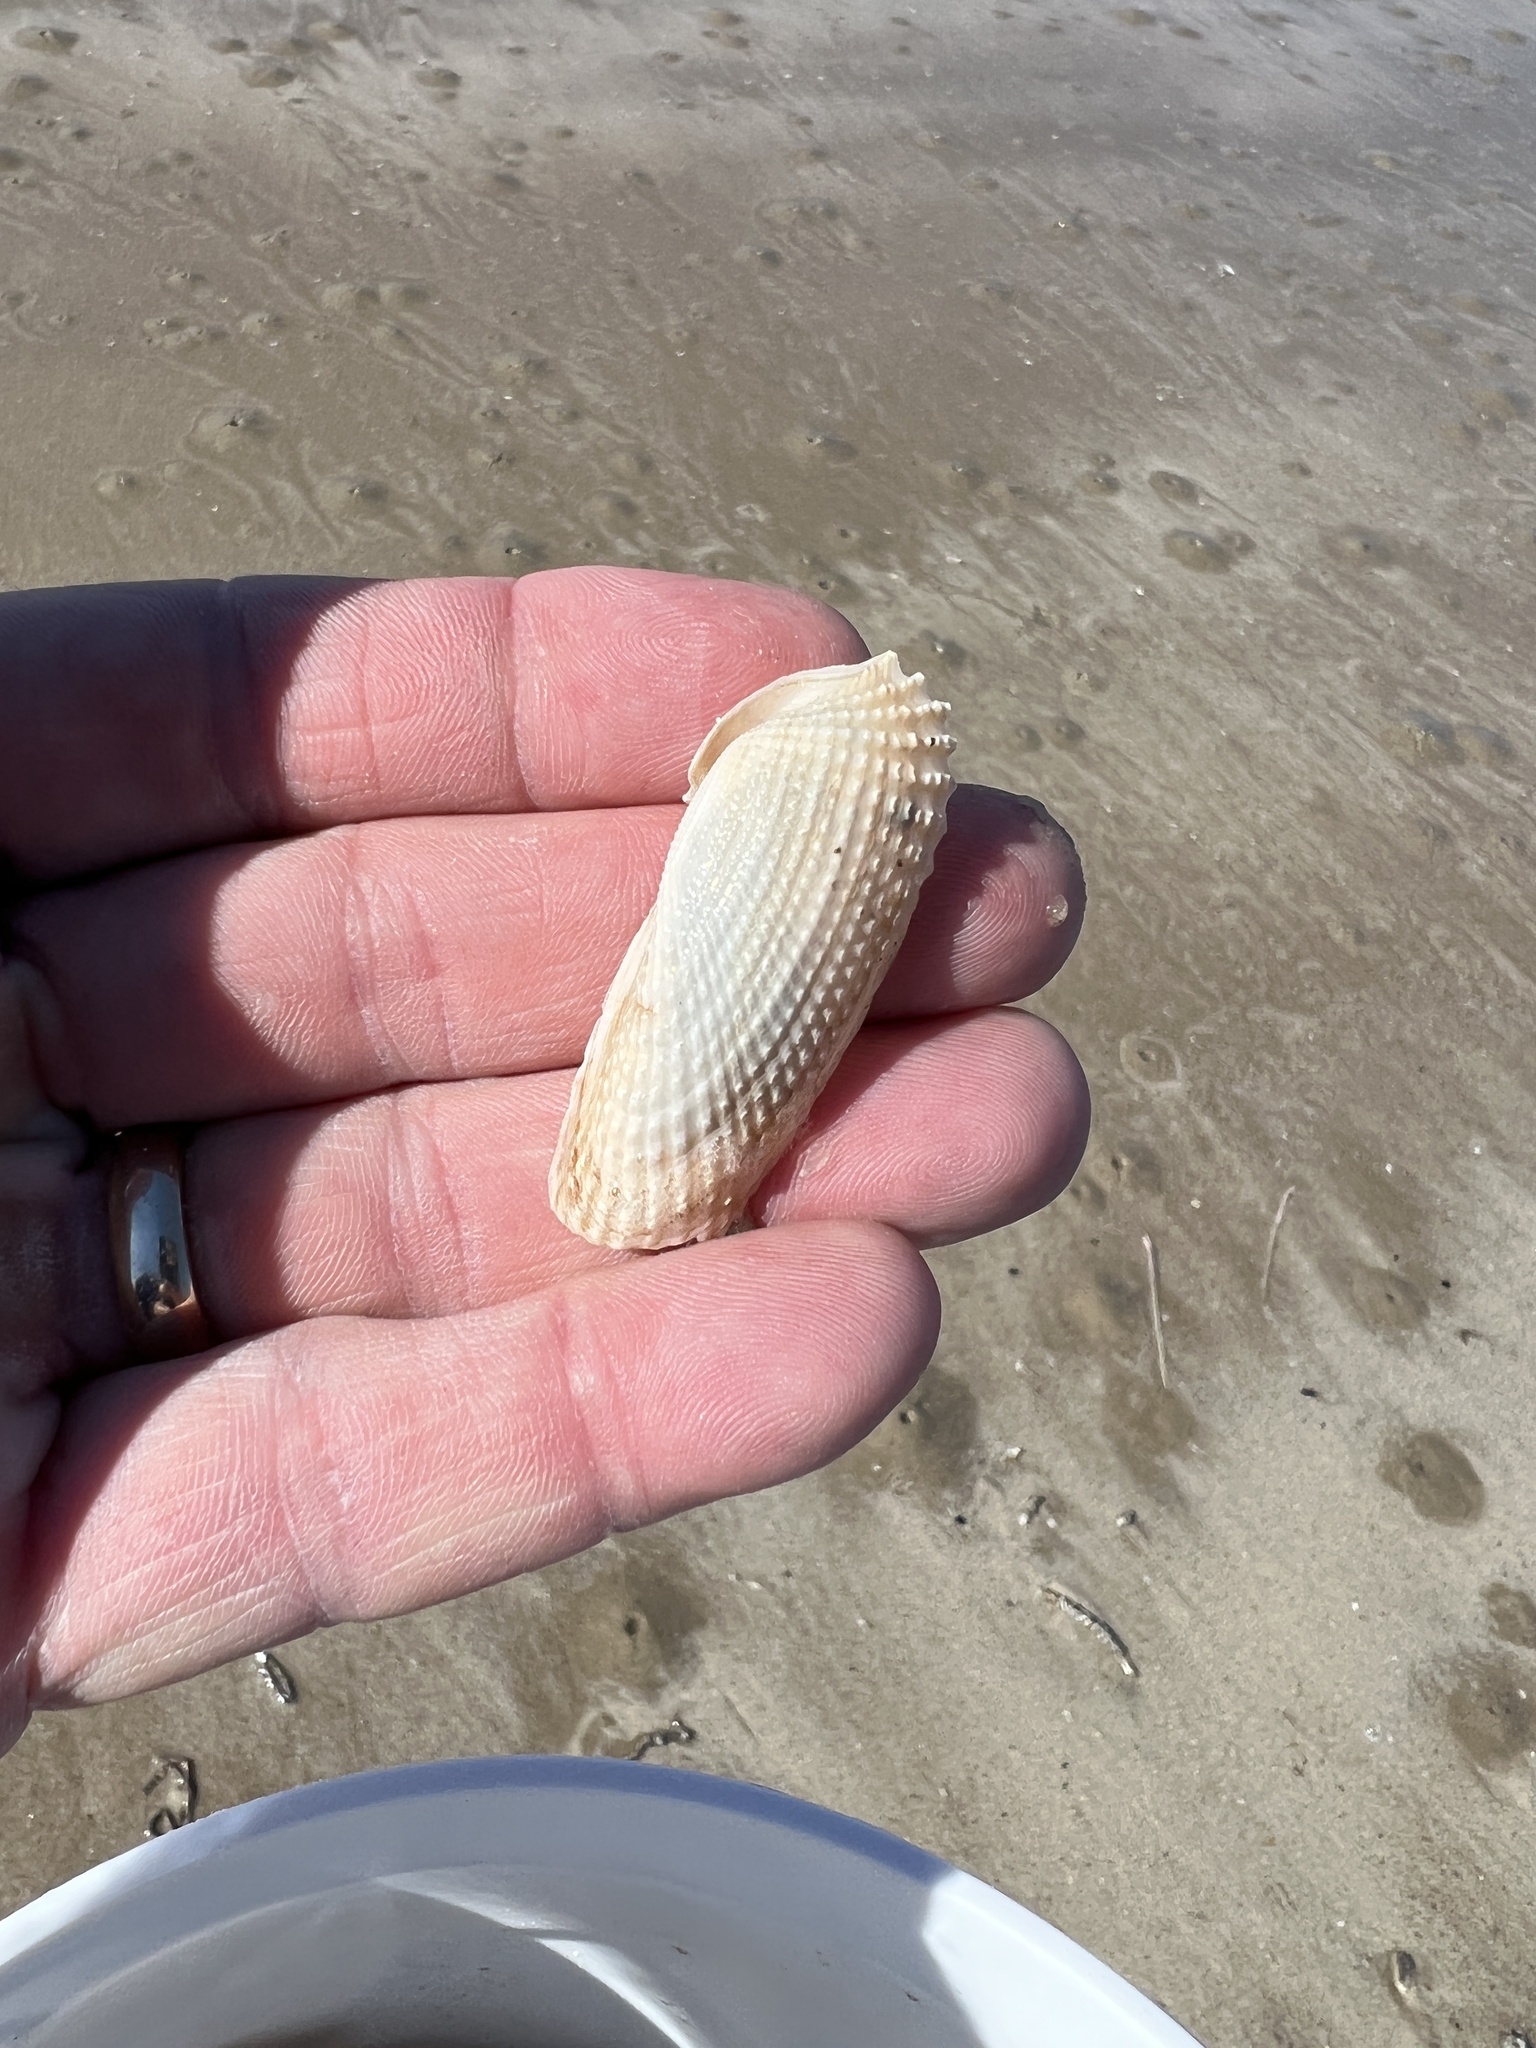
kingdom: Animalia
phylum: Mollusca
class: Bivalvia
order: Myida
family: Pholadidae
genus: Cyrtopleura
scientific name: Cyrtopleura costata
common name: Angel wing
